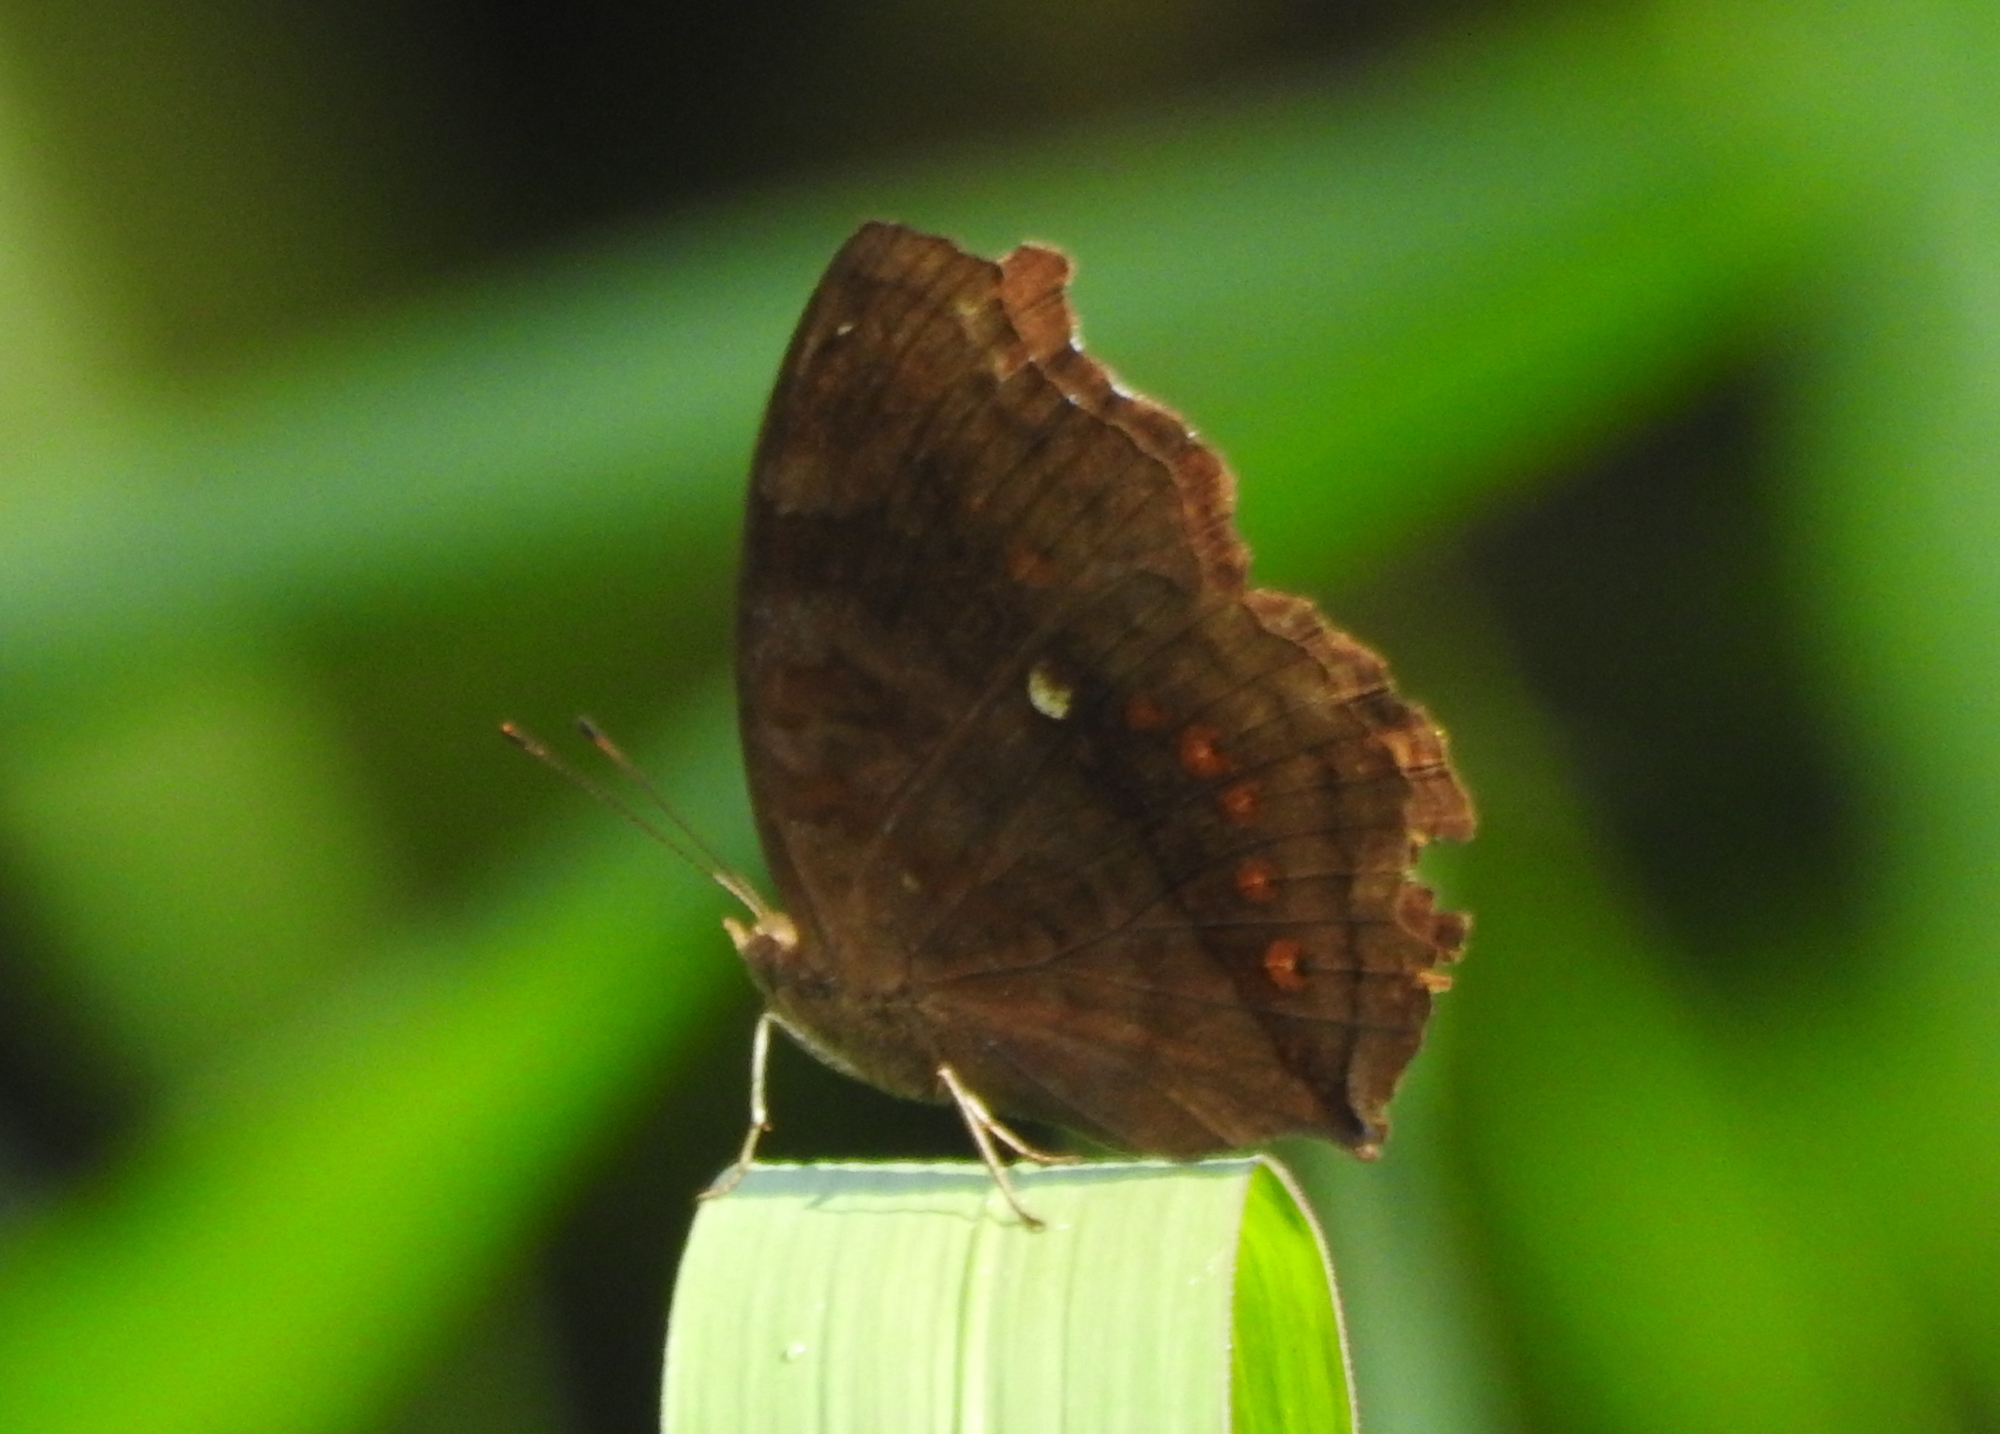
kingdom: Animalia
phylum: Arthropoda
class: Insecta
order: Lepidoptera
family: Nymphalidae
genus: Junonia
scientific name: Junonia hedonia
